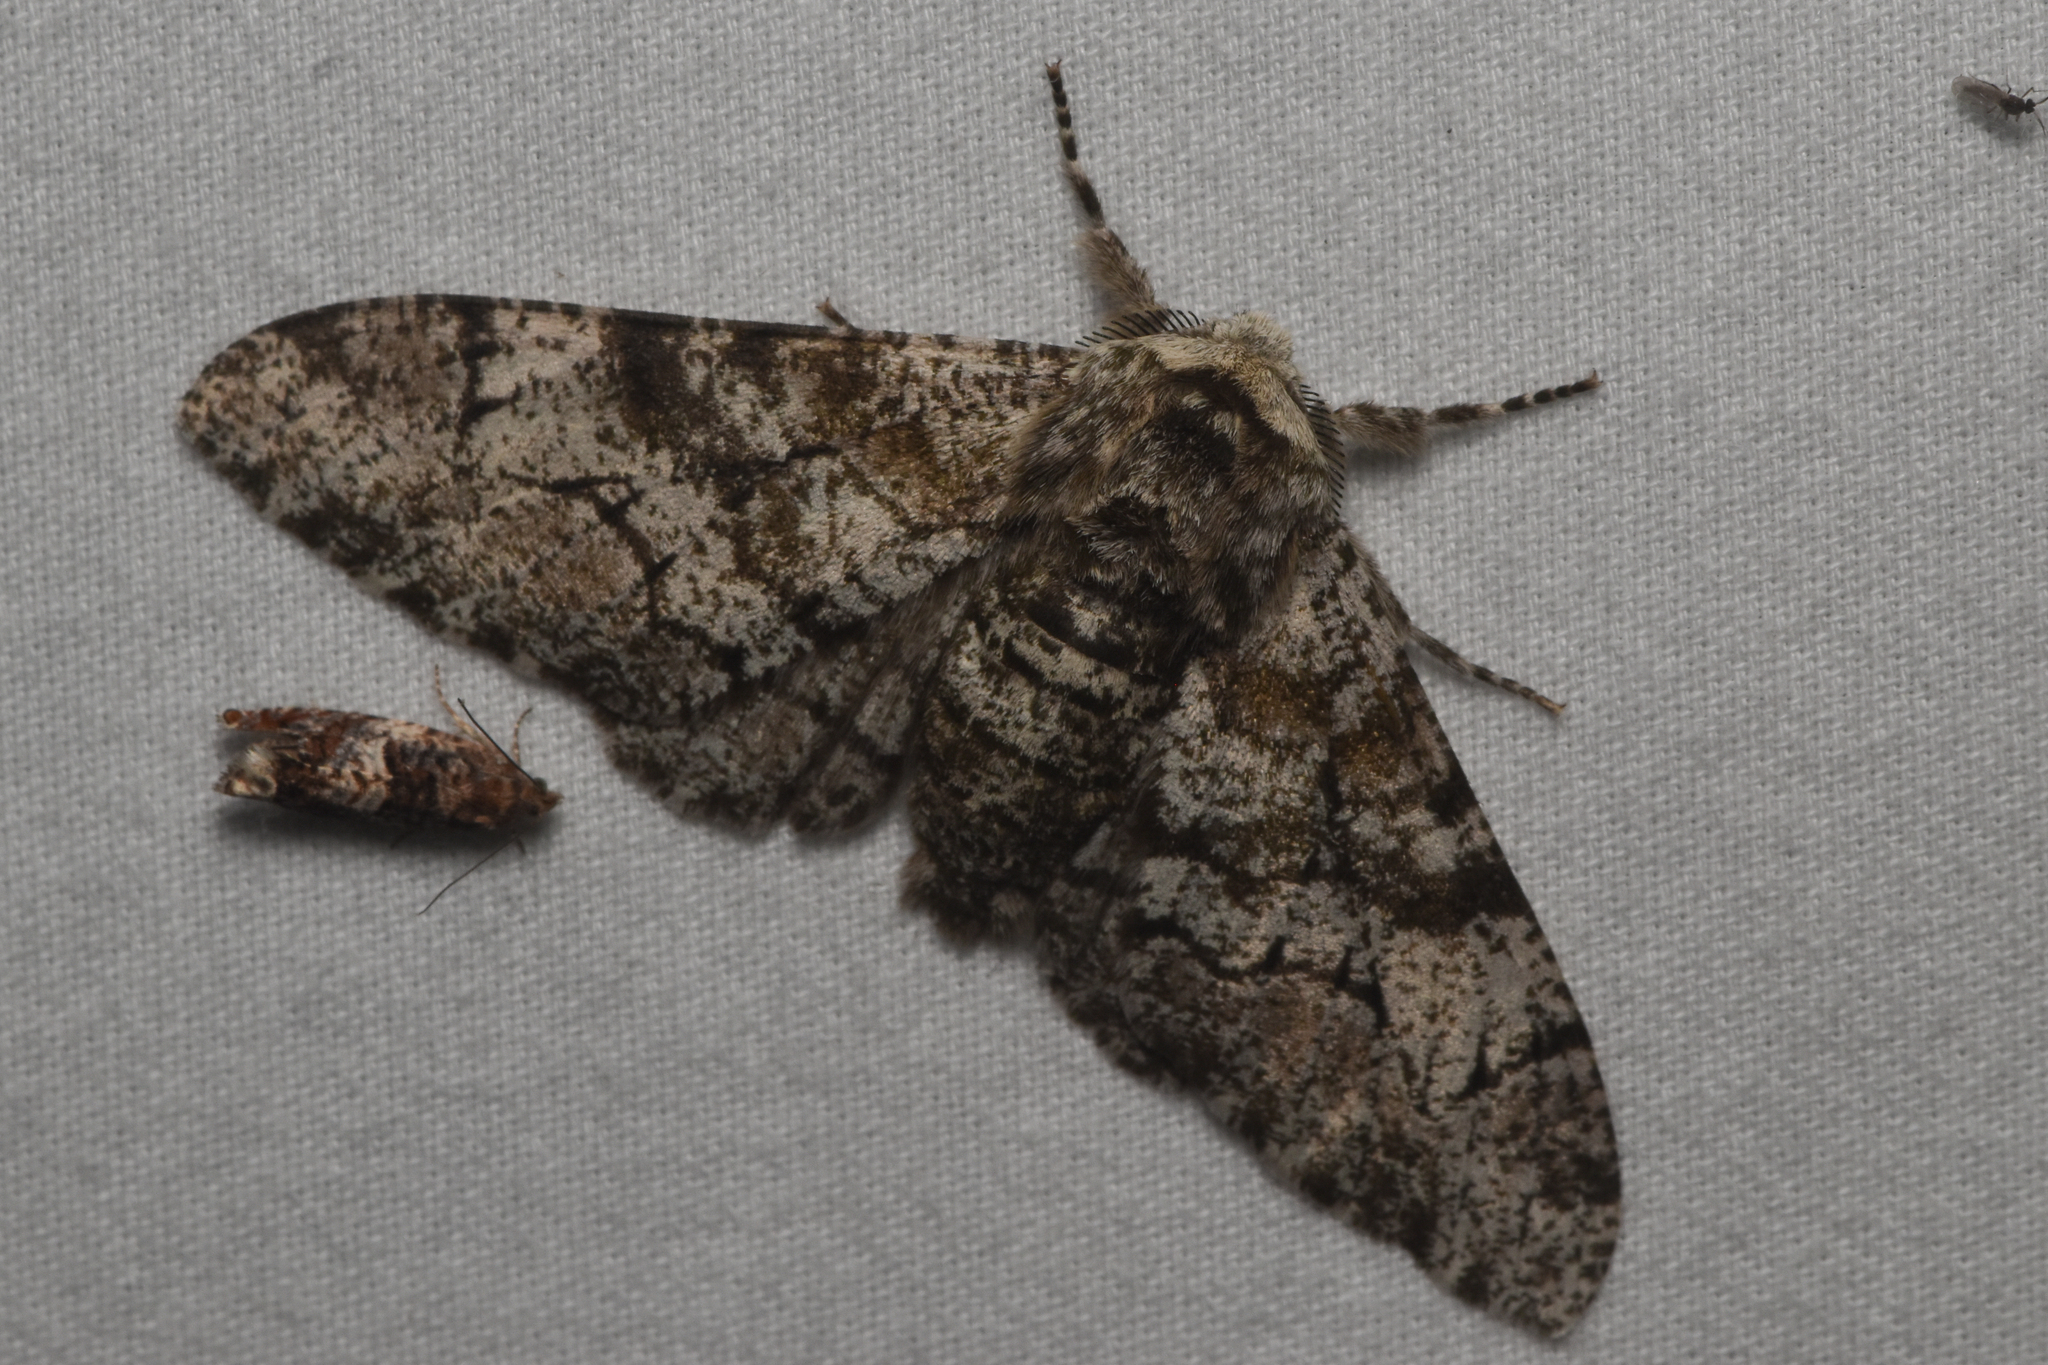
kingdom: Animalia
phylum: Arthropoda
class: Insecta
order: Lepidoptera
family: Geometridae
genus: Biston
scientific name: Biston betularia
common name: Peppered moth
